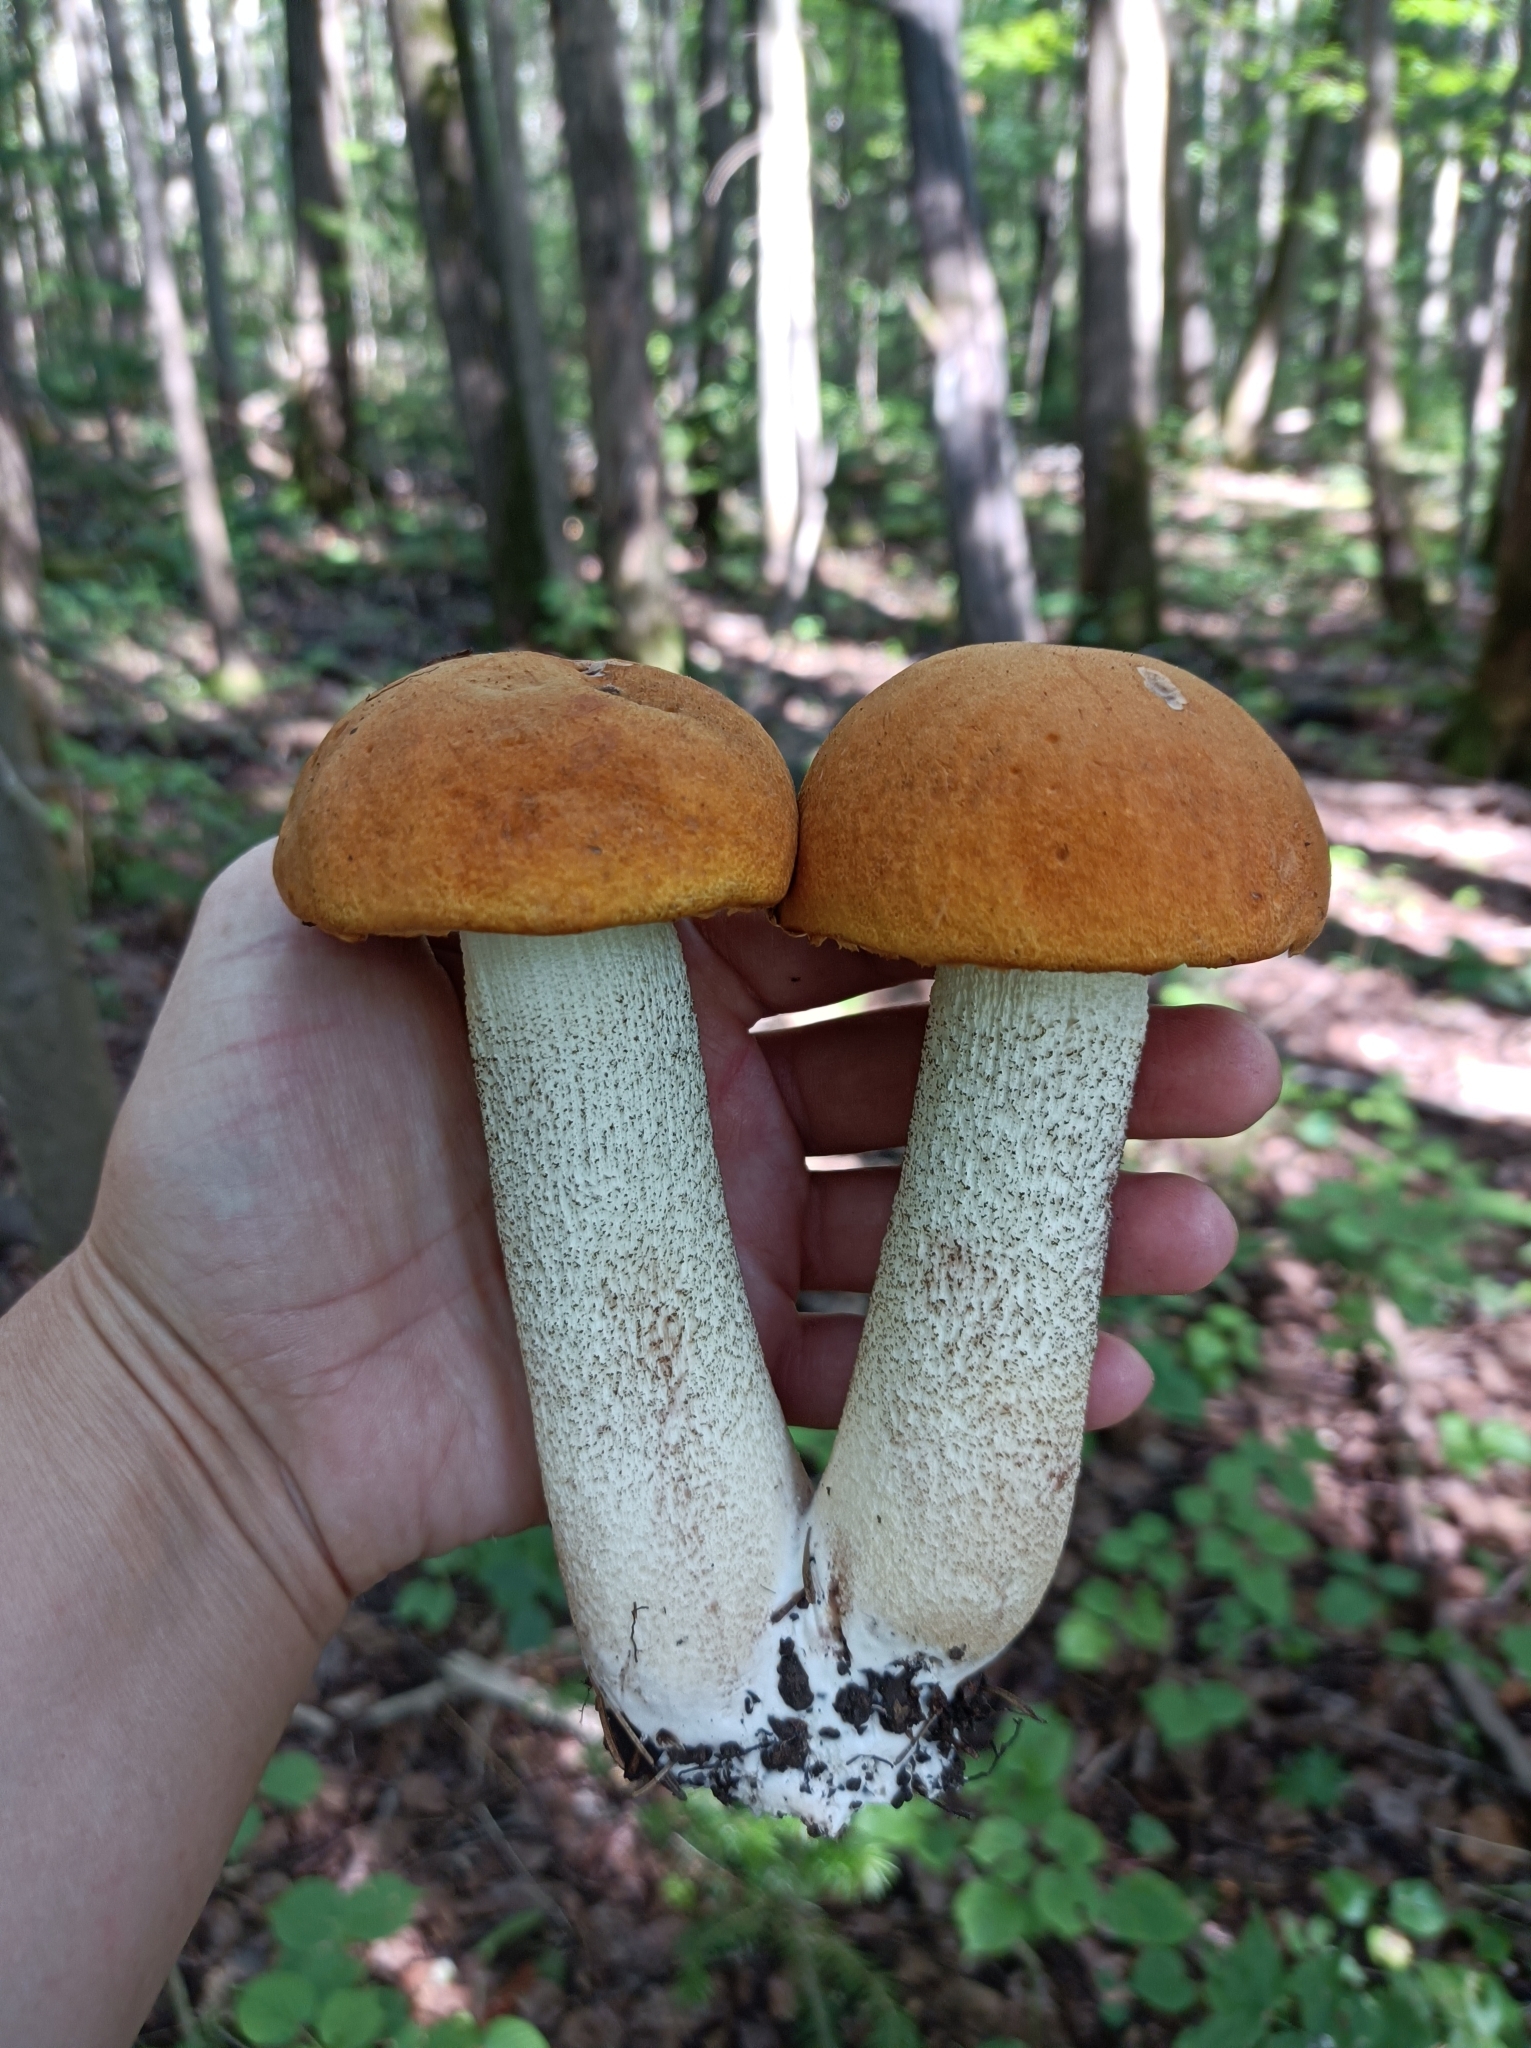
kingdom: Fungi
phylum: Basidiomycota
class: Agaricomycetes
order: Boletales
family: Boletaceae
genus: Leccinum
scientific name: Leccinum albostipitatum
